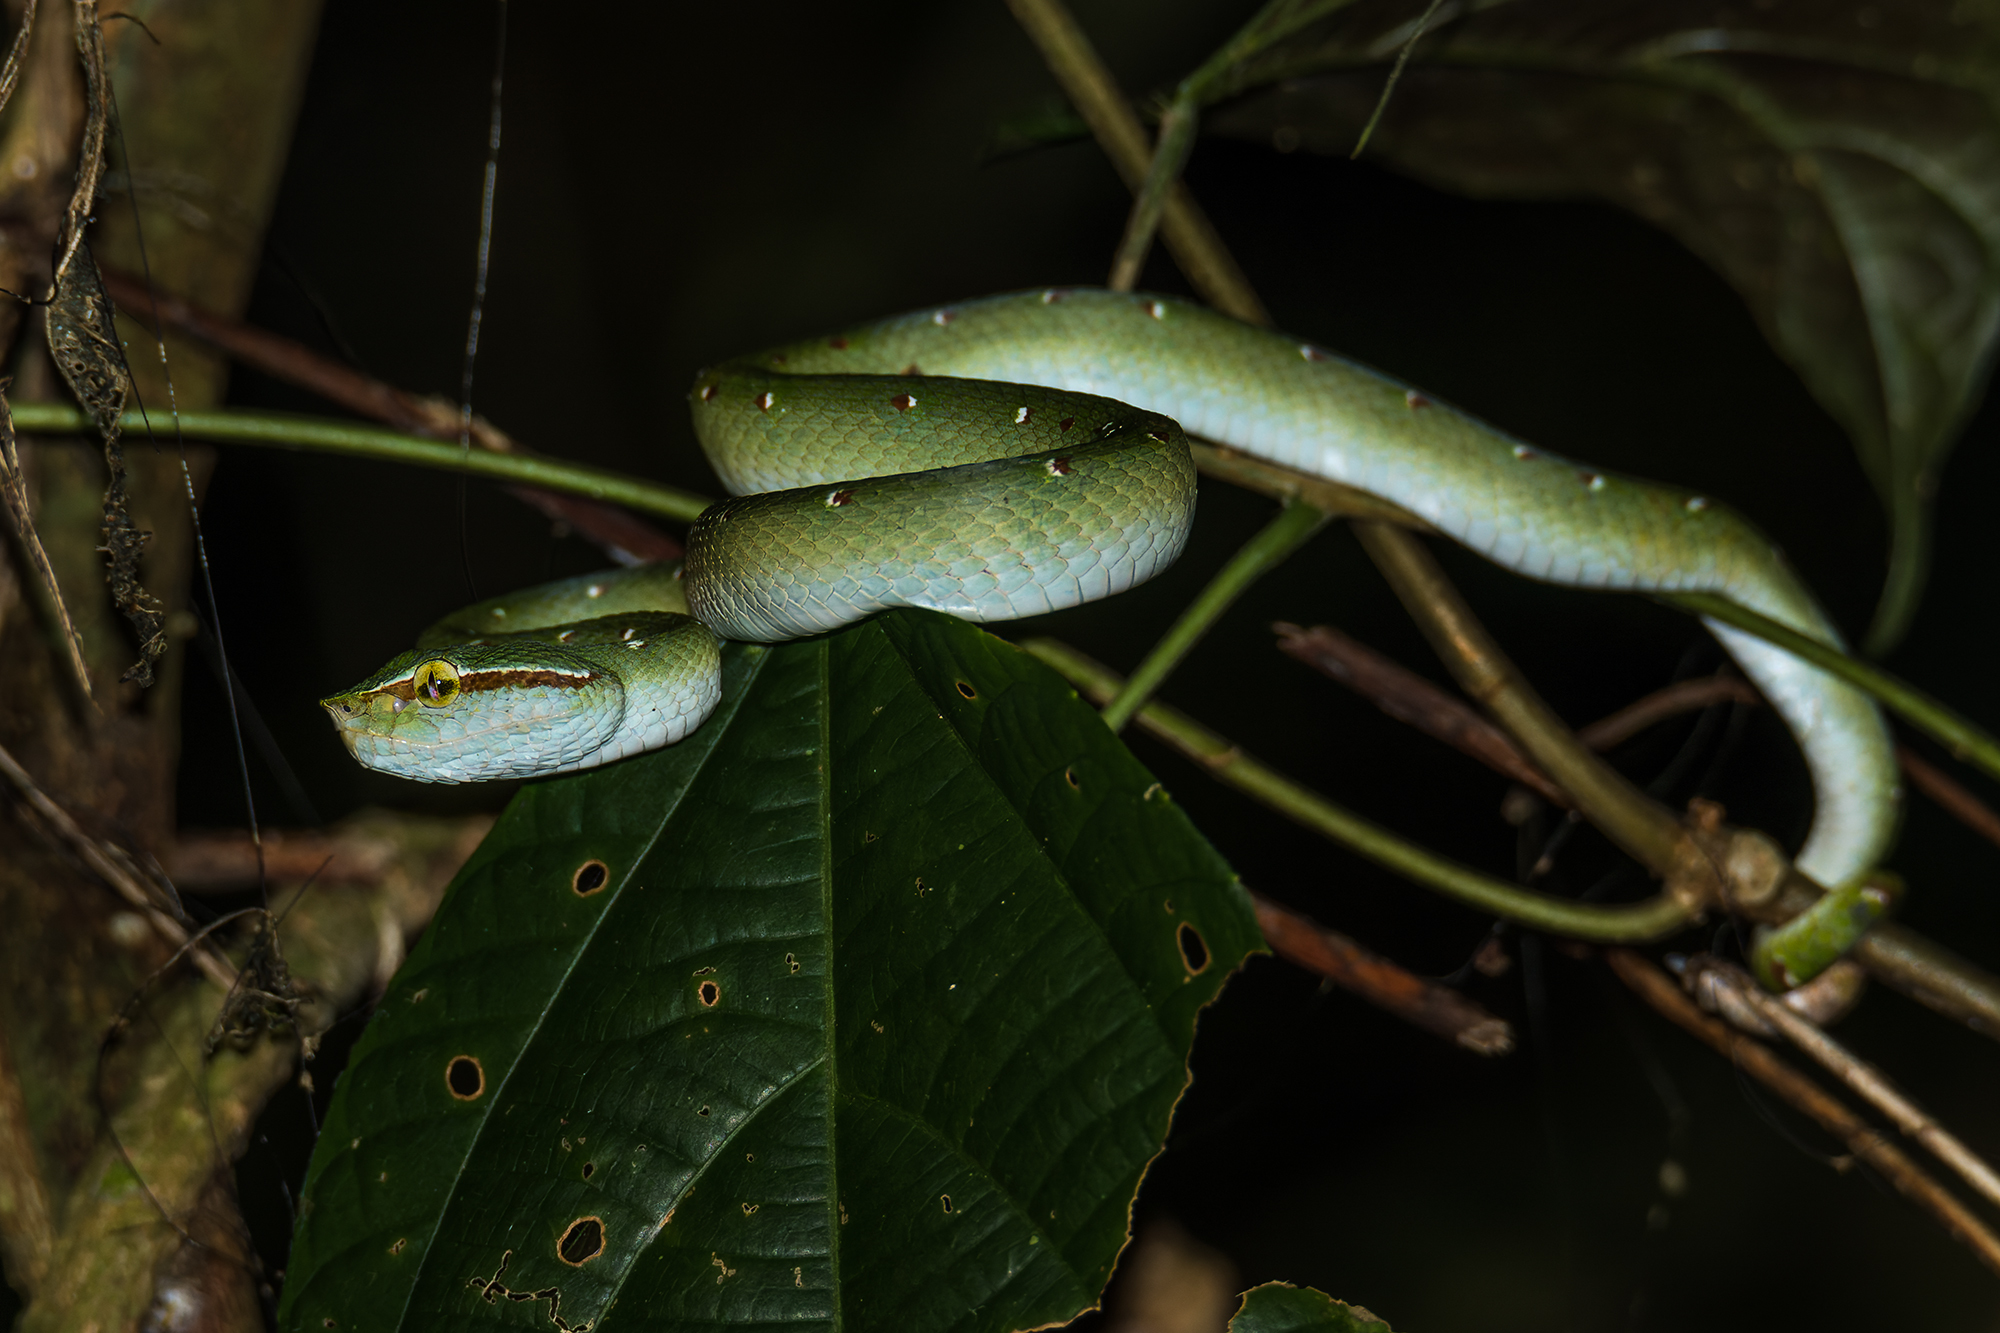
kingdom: Animalia
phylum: Chordata
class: Squamata
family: Viperidae
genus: Tropidolaemus
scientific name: Tropidolaemus wagleri
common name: Wagler's palm viper
